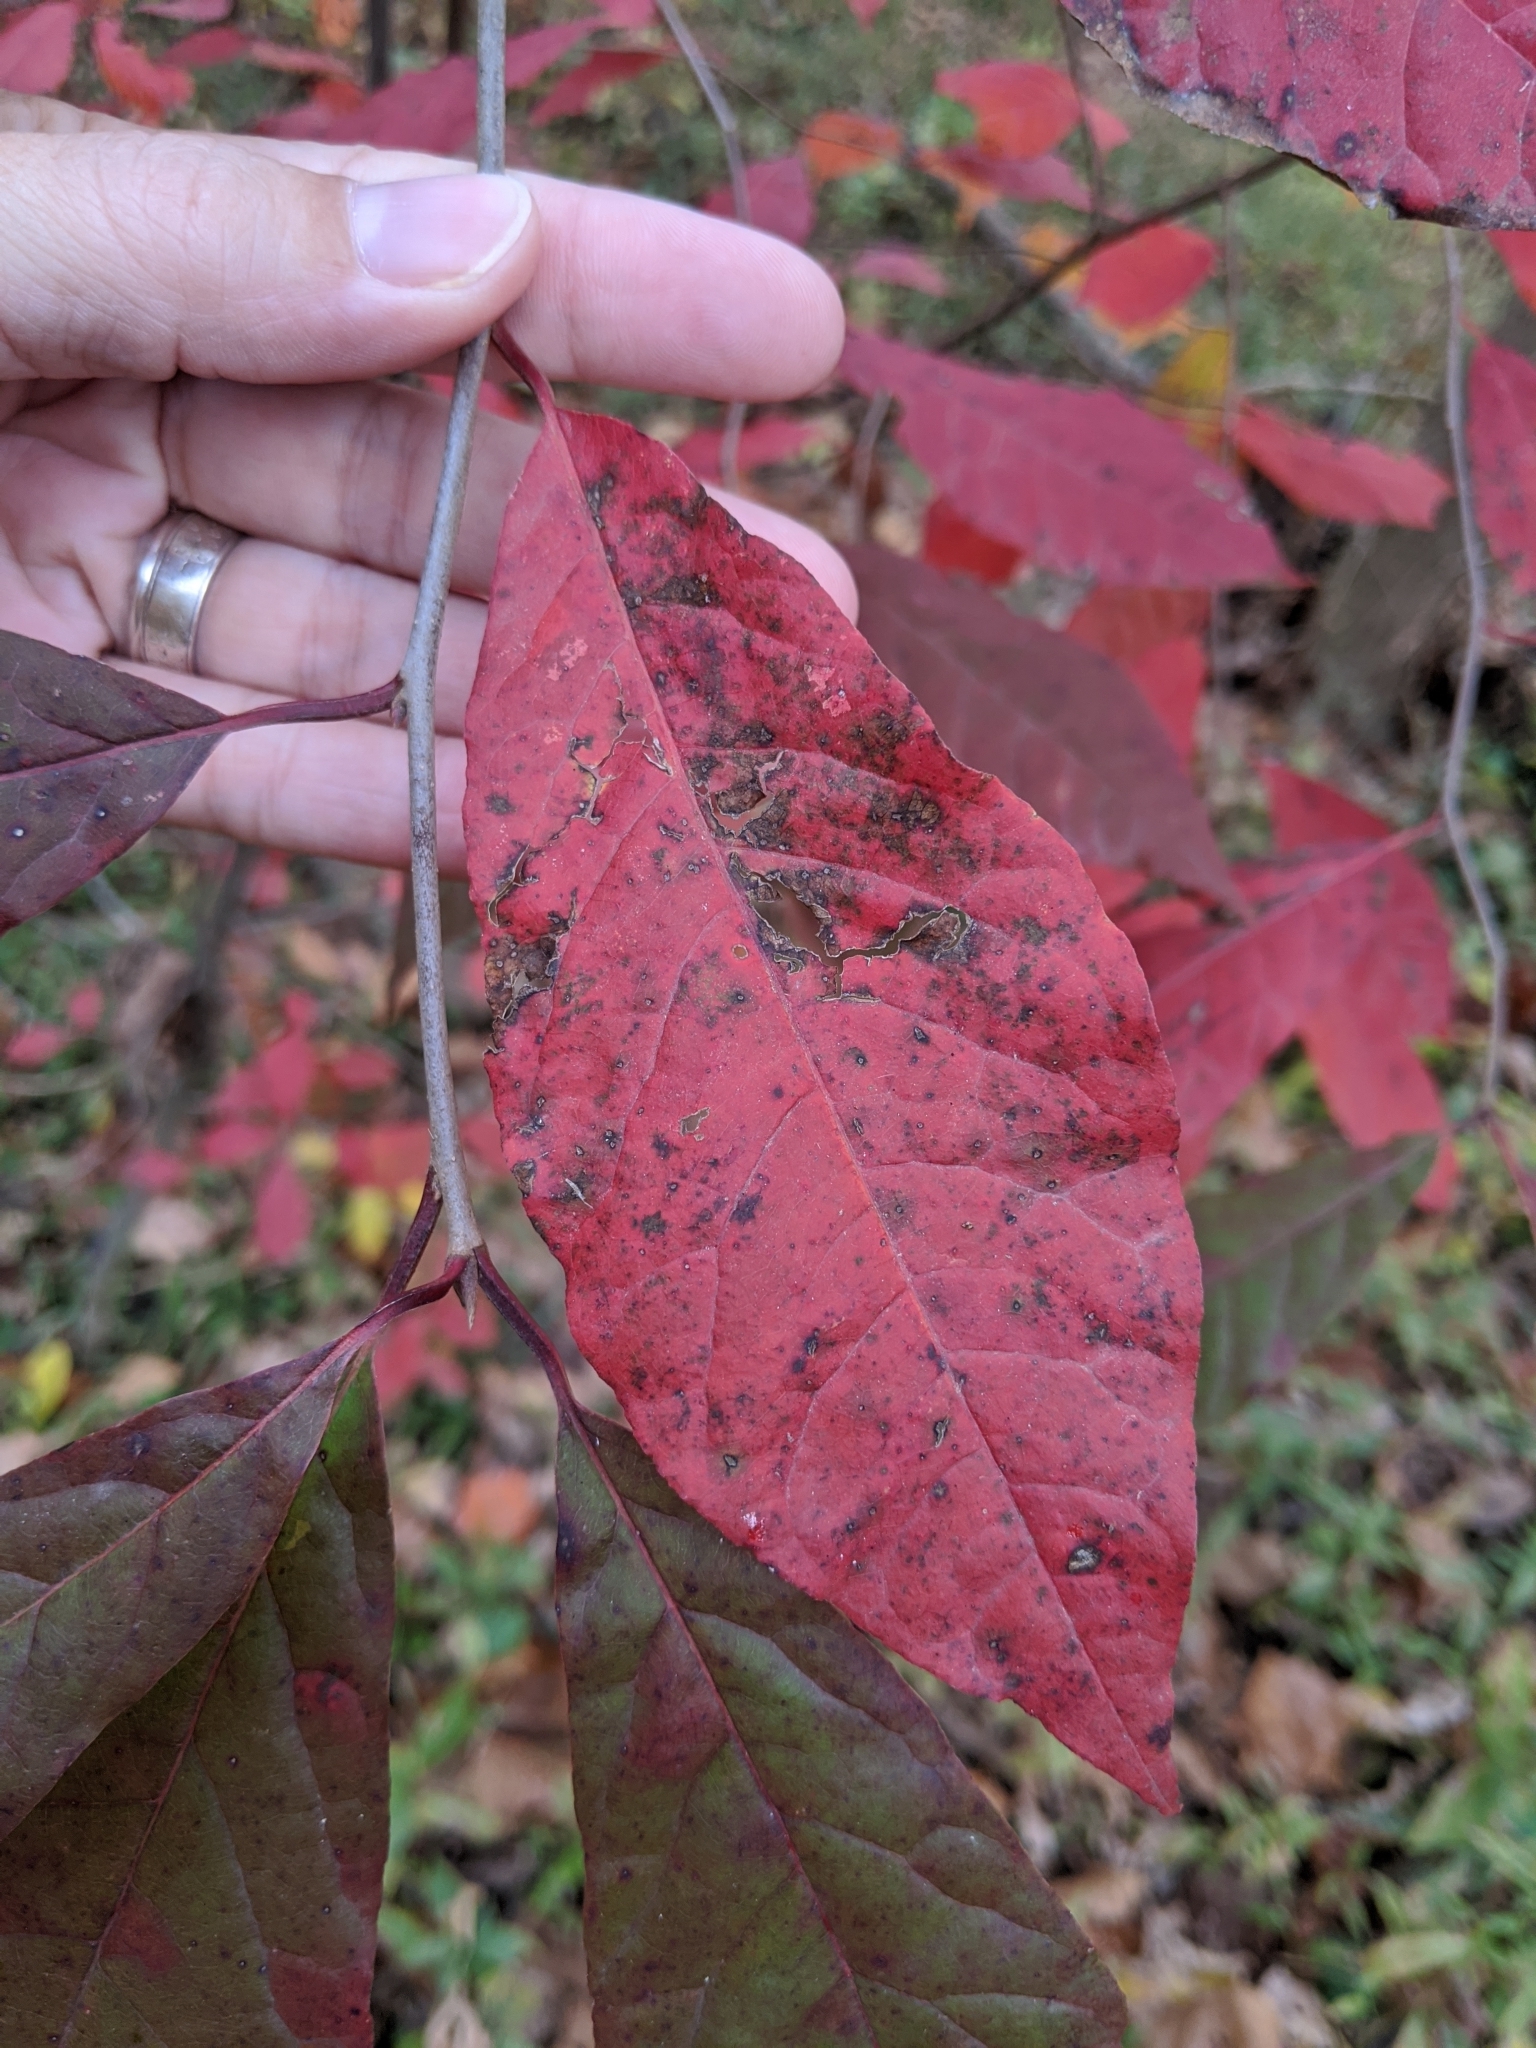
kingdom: Plantae
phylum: Tracheophyta
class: Magnoliopsida
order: Cornales
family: Nyssaceae
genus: Nyssa
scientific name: Nyssa sylvatica
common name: Black tupelo
